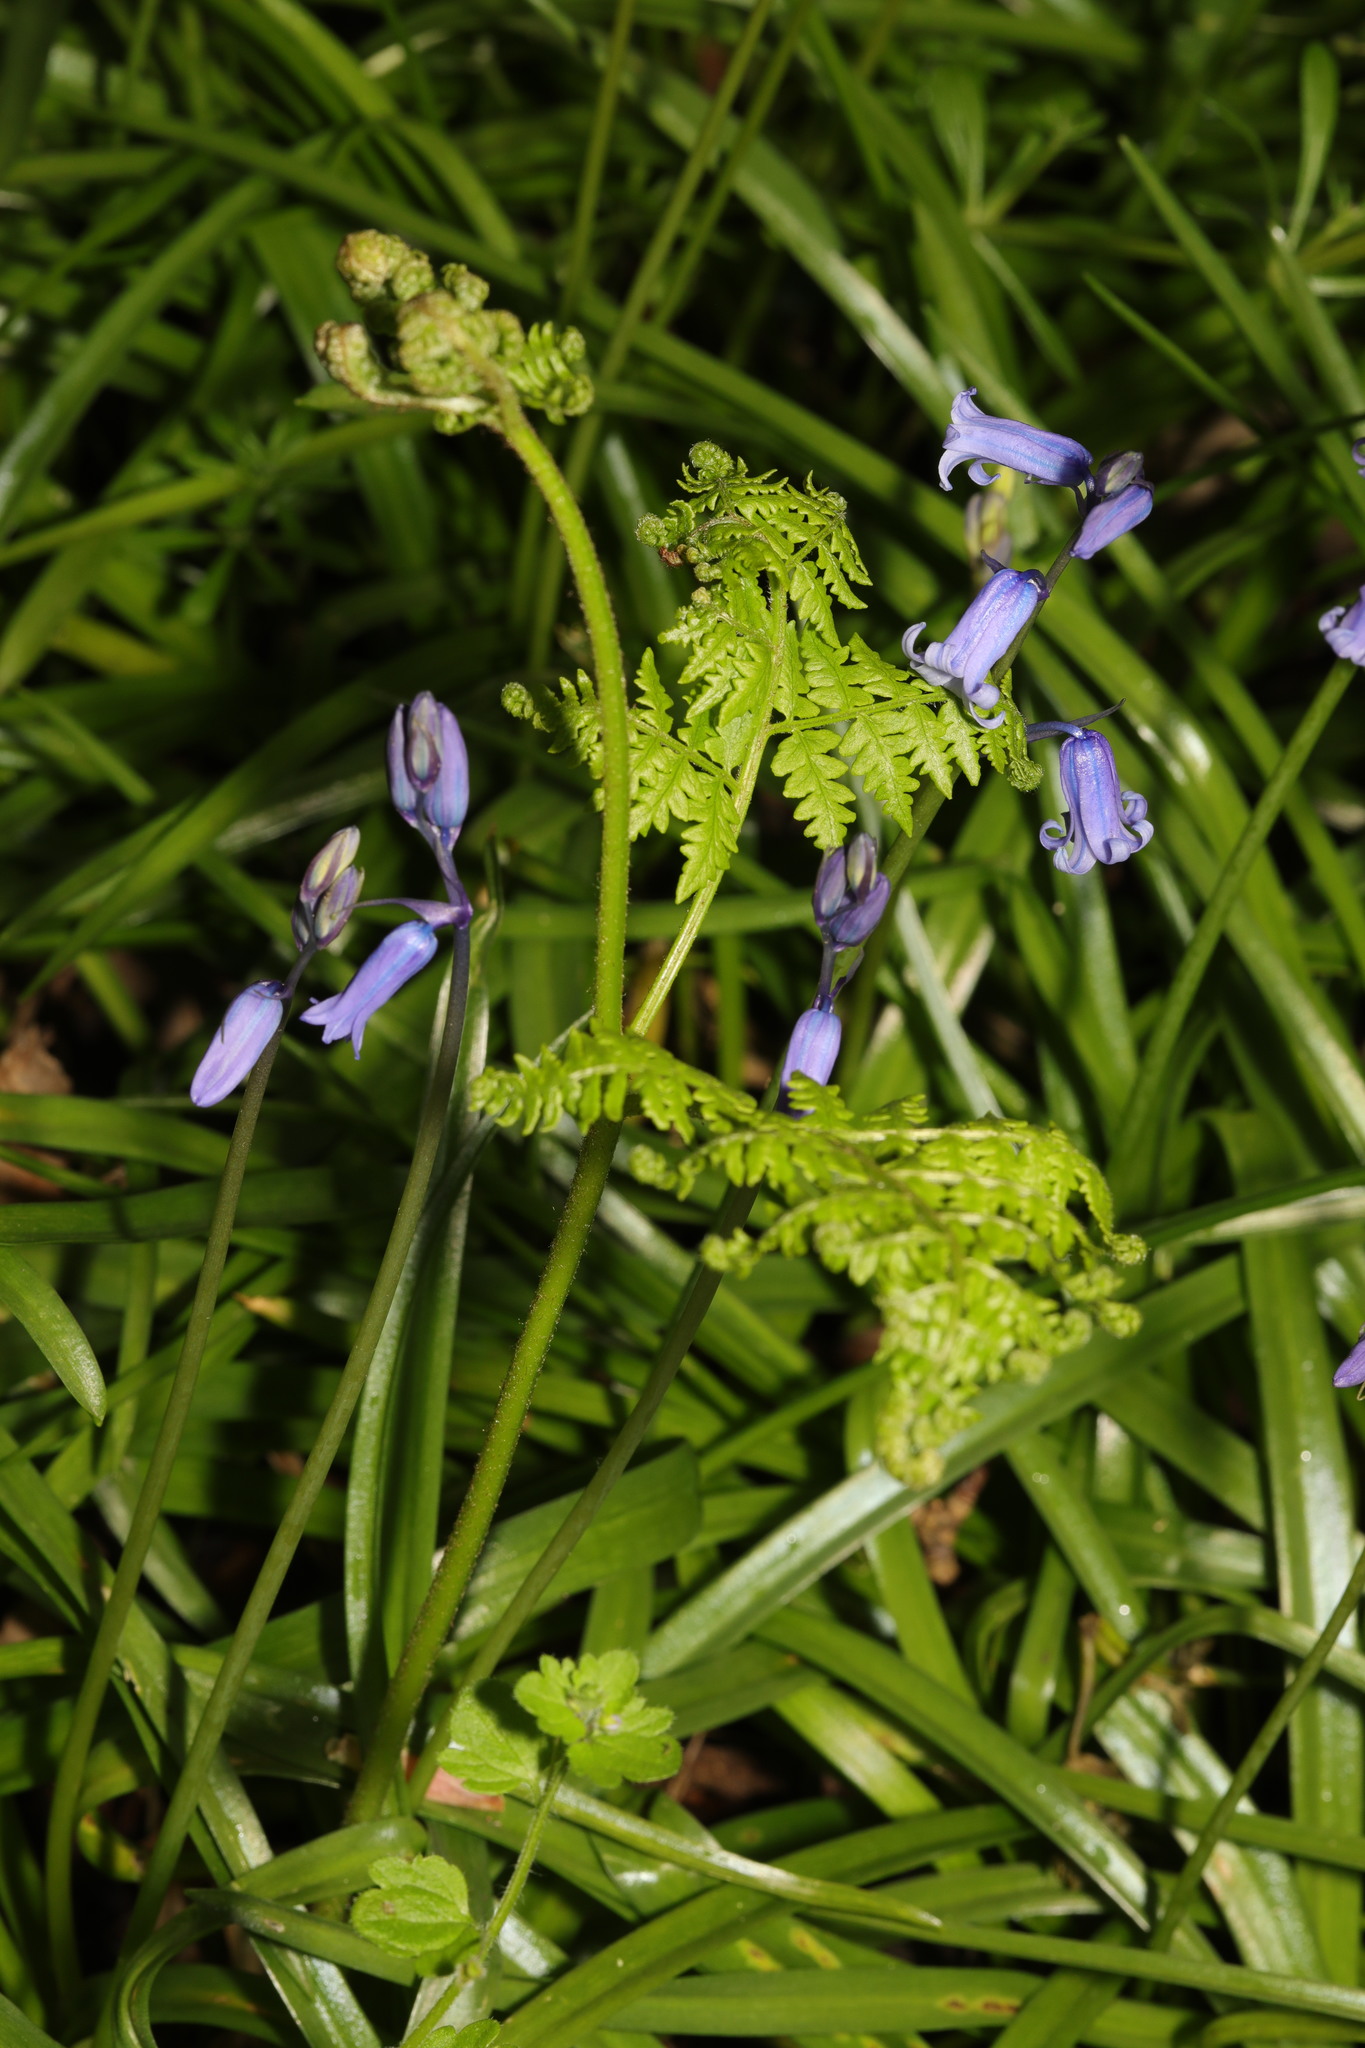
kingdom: Plantae
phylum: Tracheophyta
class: Liliopsida
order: Asparagales
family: Asparagaceae
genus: Hyacinthoides
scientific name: Hyacinthoides non-scripta
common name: Bluebell
